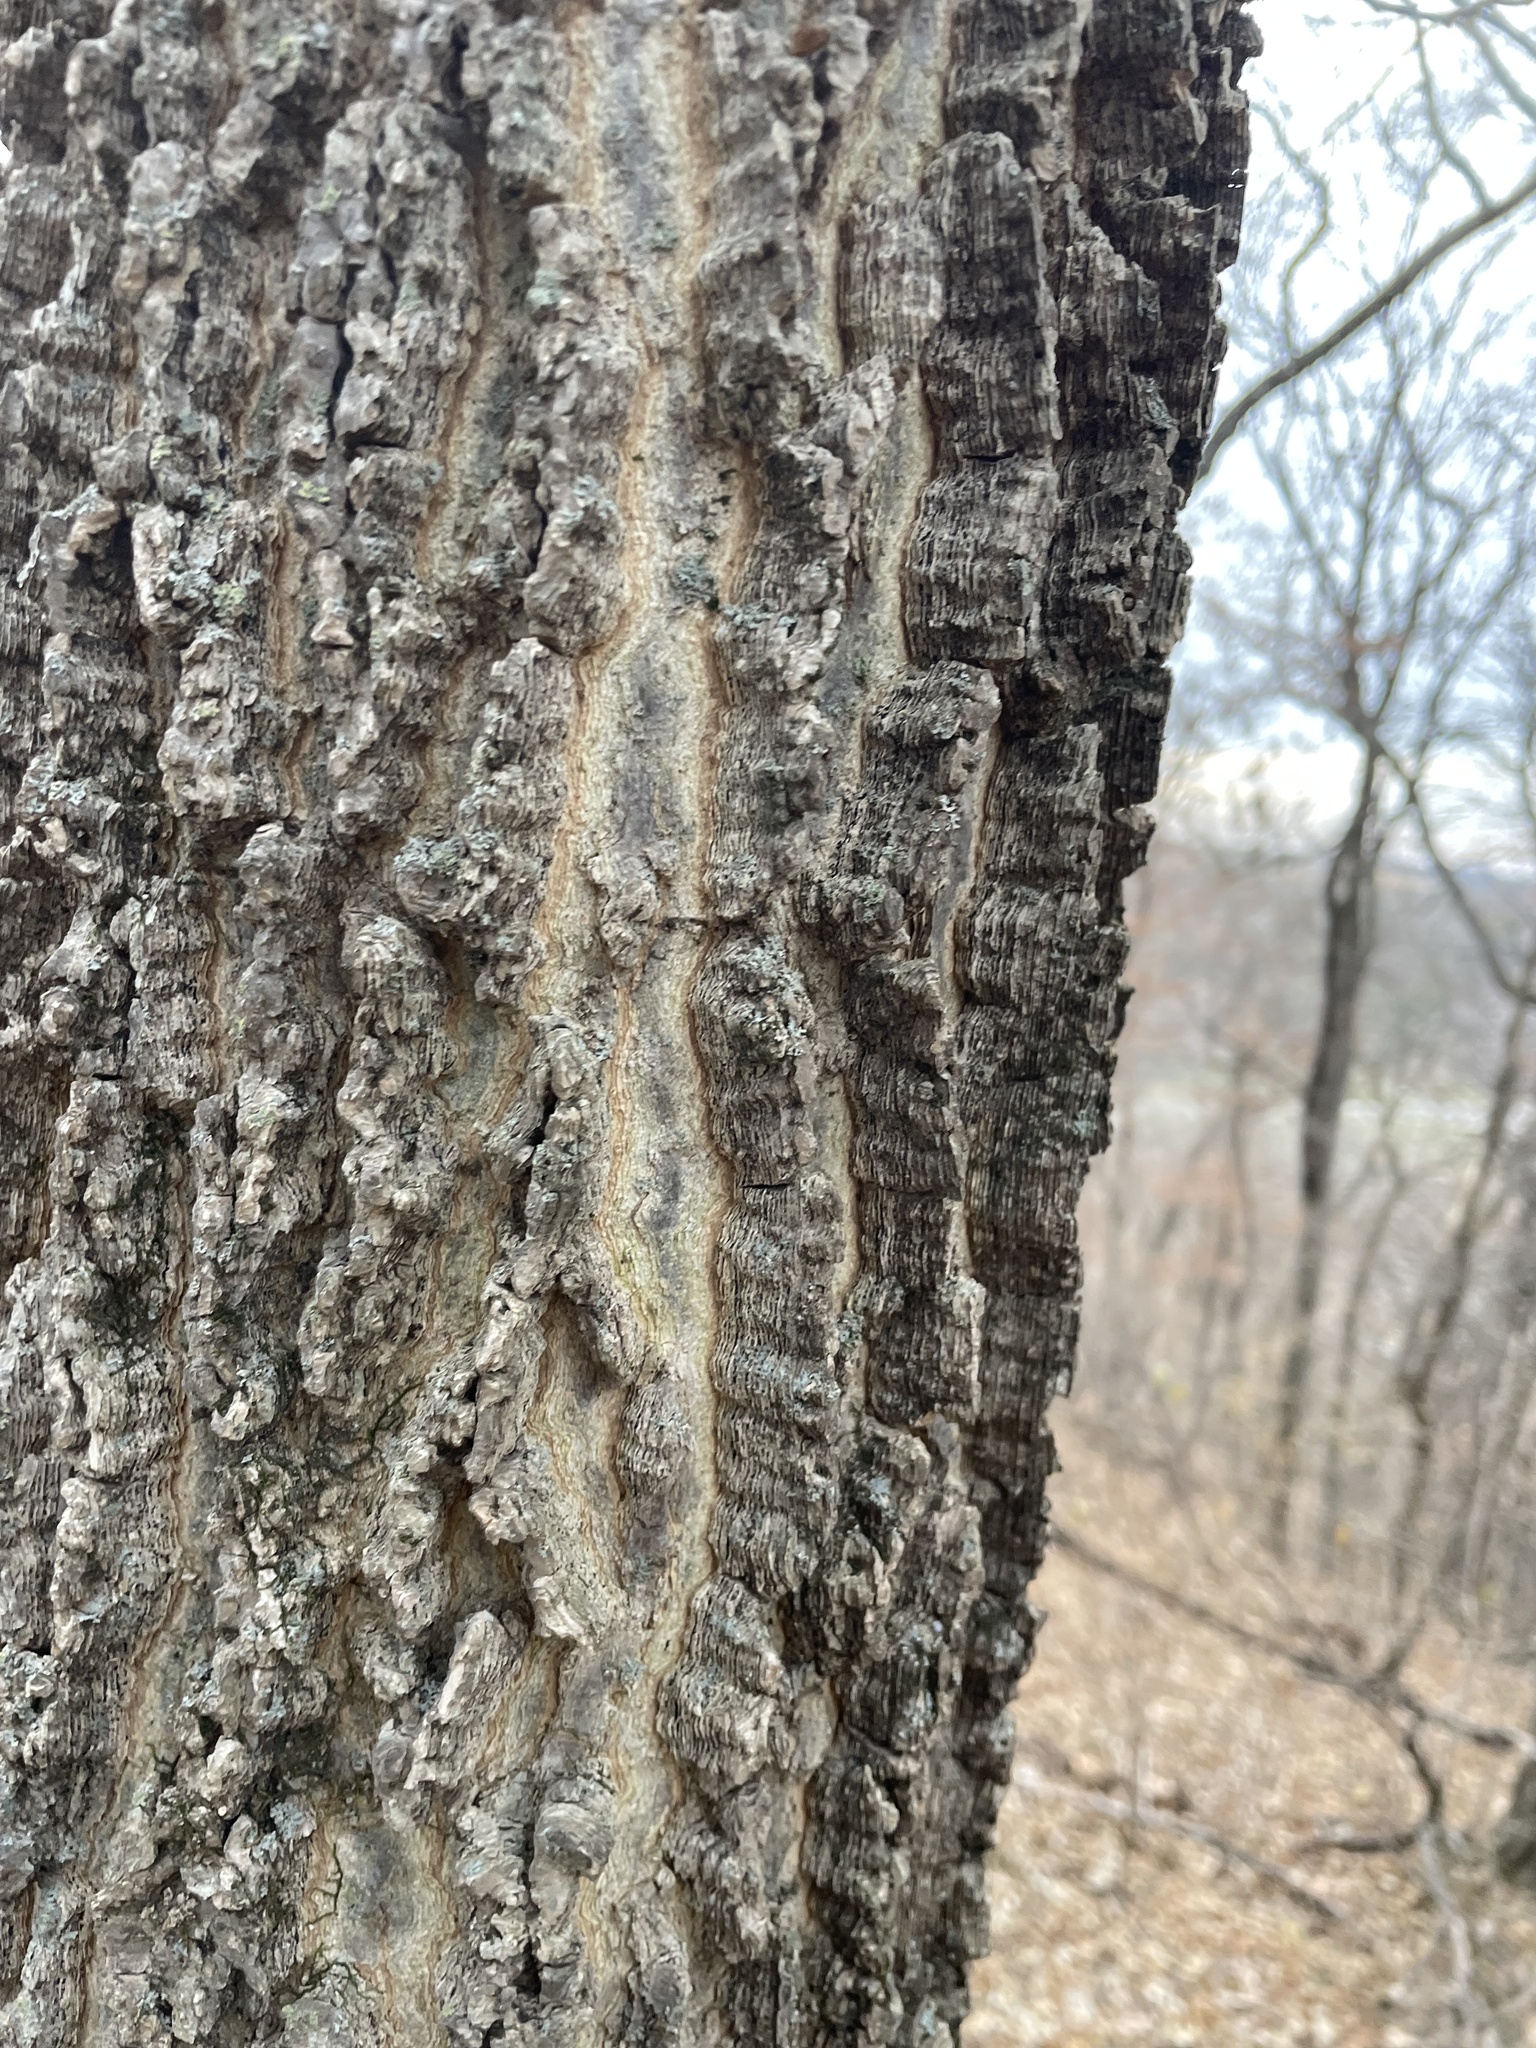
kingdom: Plantae
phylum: Tracheophyta
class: Magnoliopsida
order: Rosales
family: Cannabaceae
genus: Celtis
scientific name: Celtis occidentalis
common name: Common hackberry
